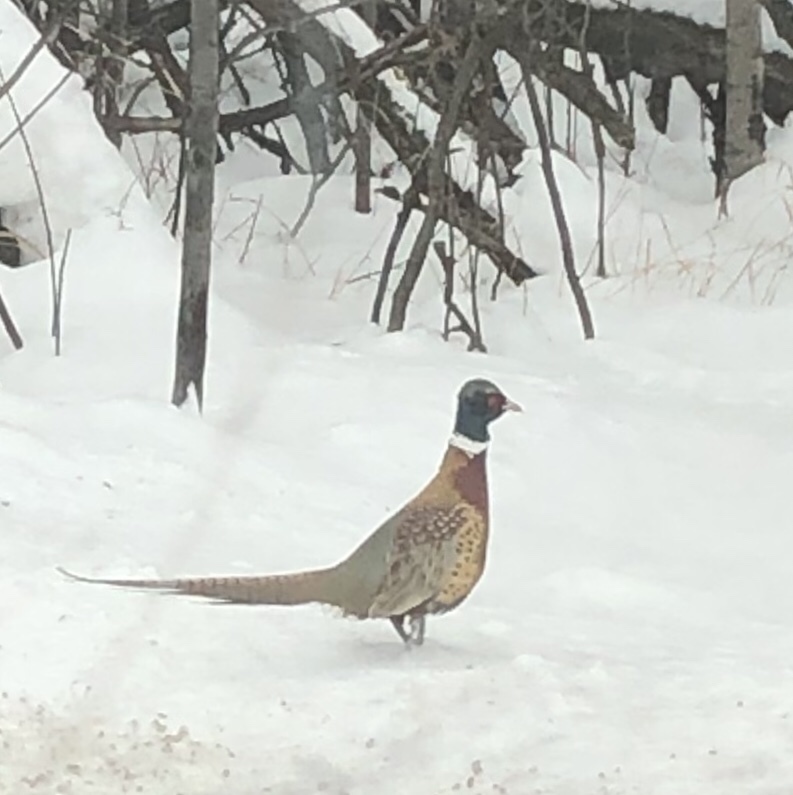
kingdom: Animalia
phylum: Chordata
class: Aves
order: Galliformes
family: Phasianidae
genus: Phasianus
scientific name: Phasianus colchicus
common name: Common pheasant
